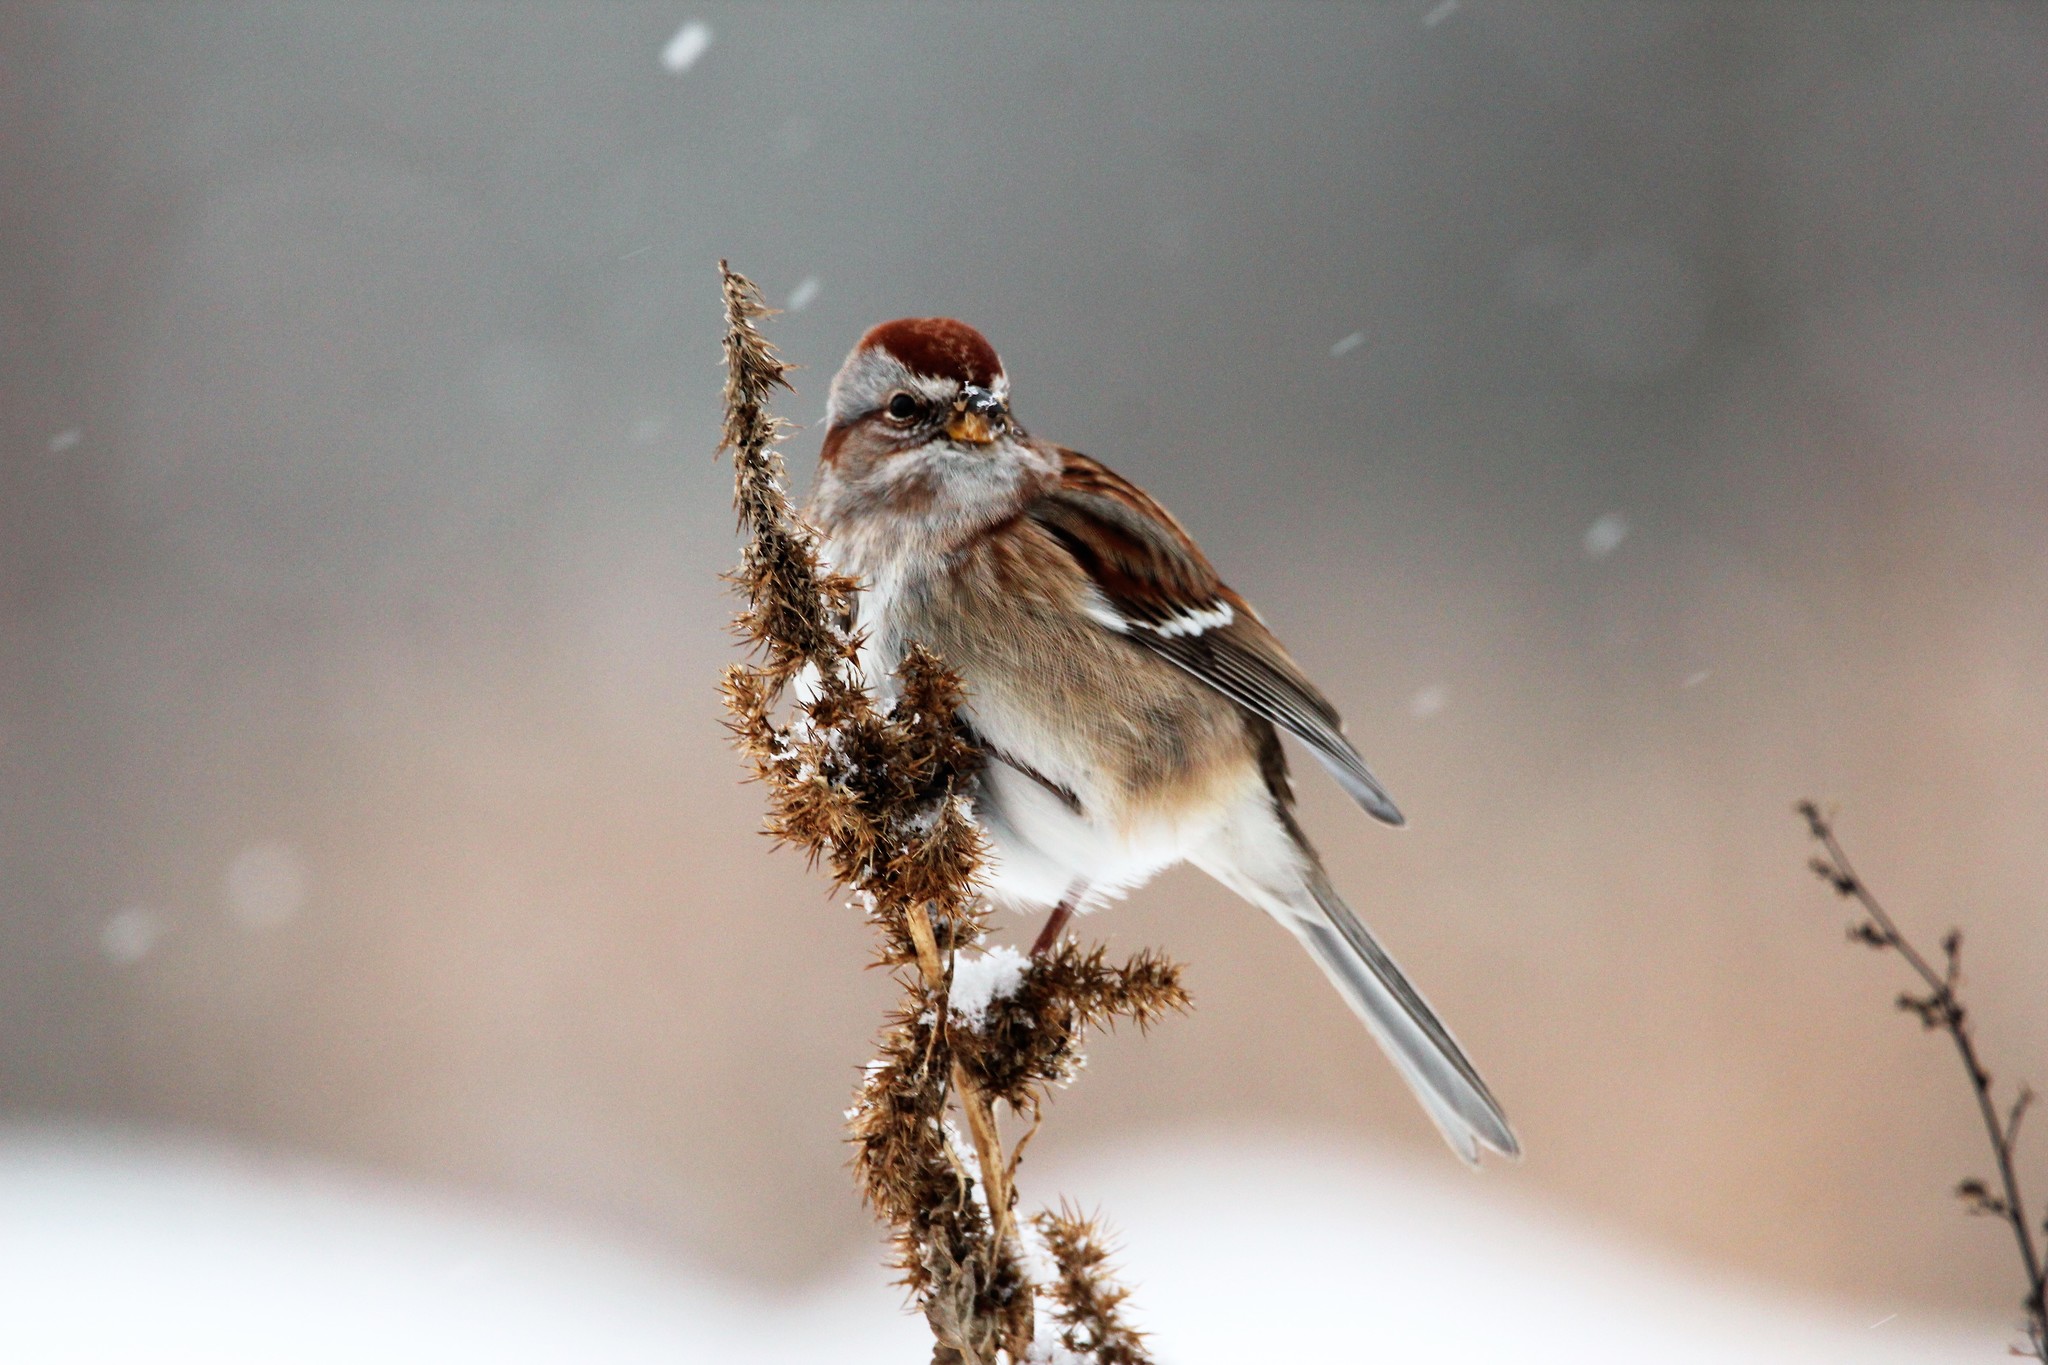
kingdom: Animalia
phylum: Chordata
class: Aves
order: Passeriformes
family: Passerellidae
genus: Spizelloides
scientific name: Spizelloides arborea
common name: American tree sparrow
